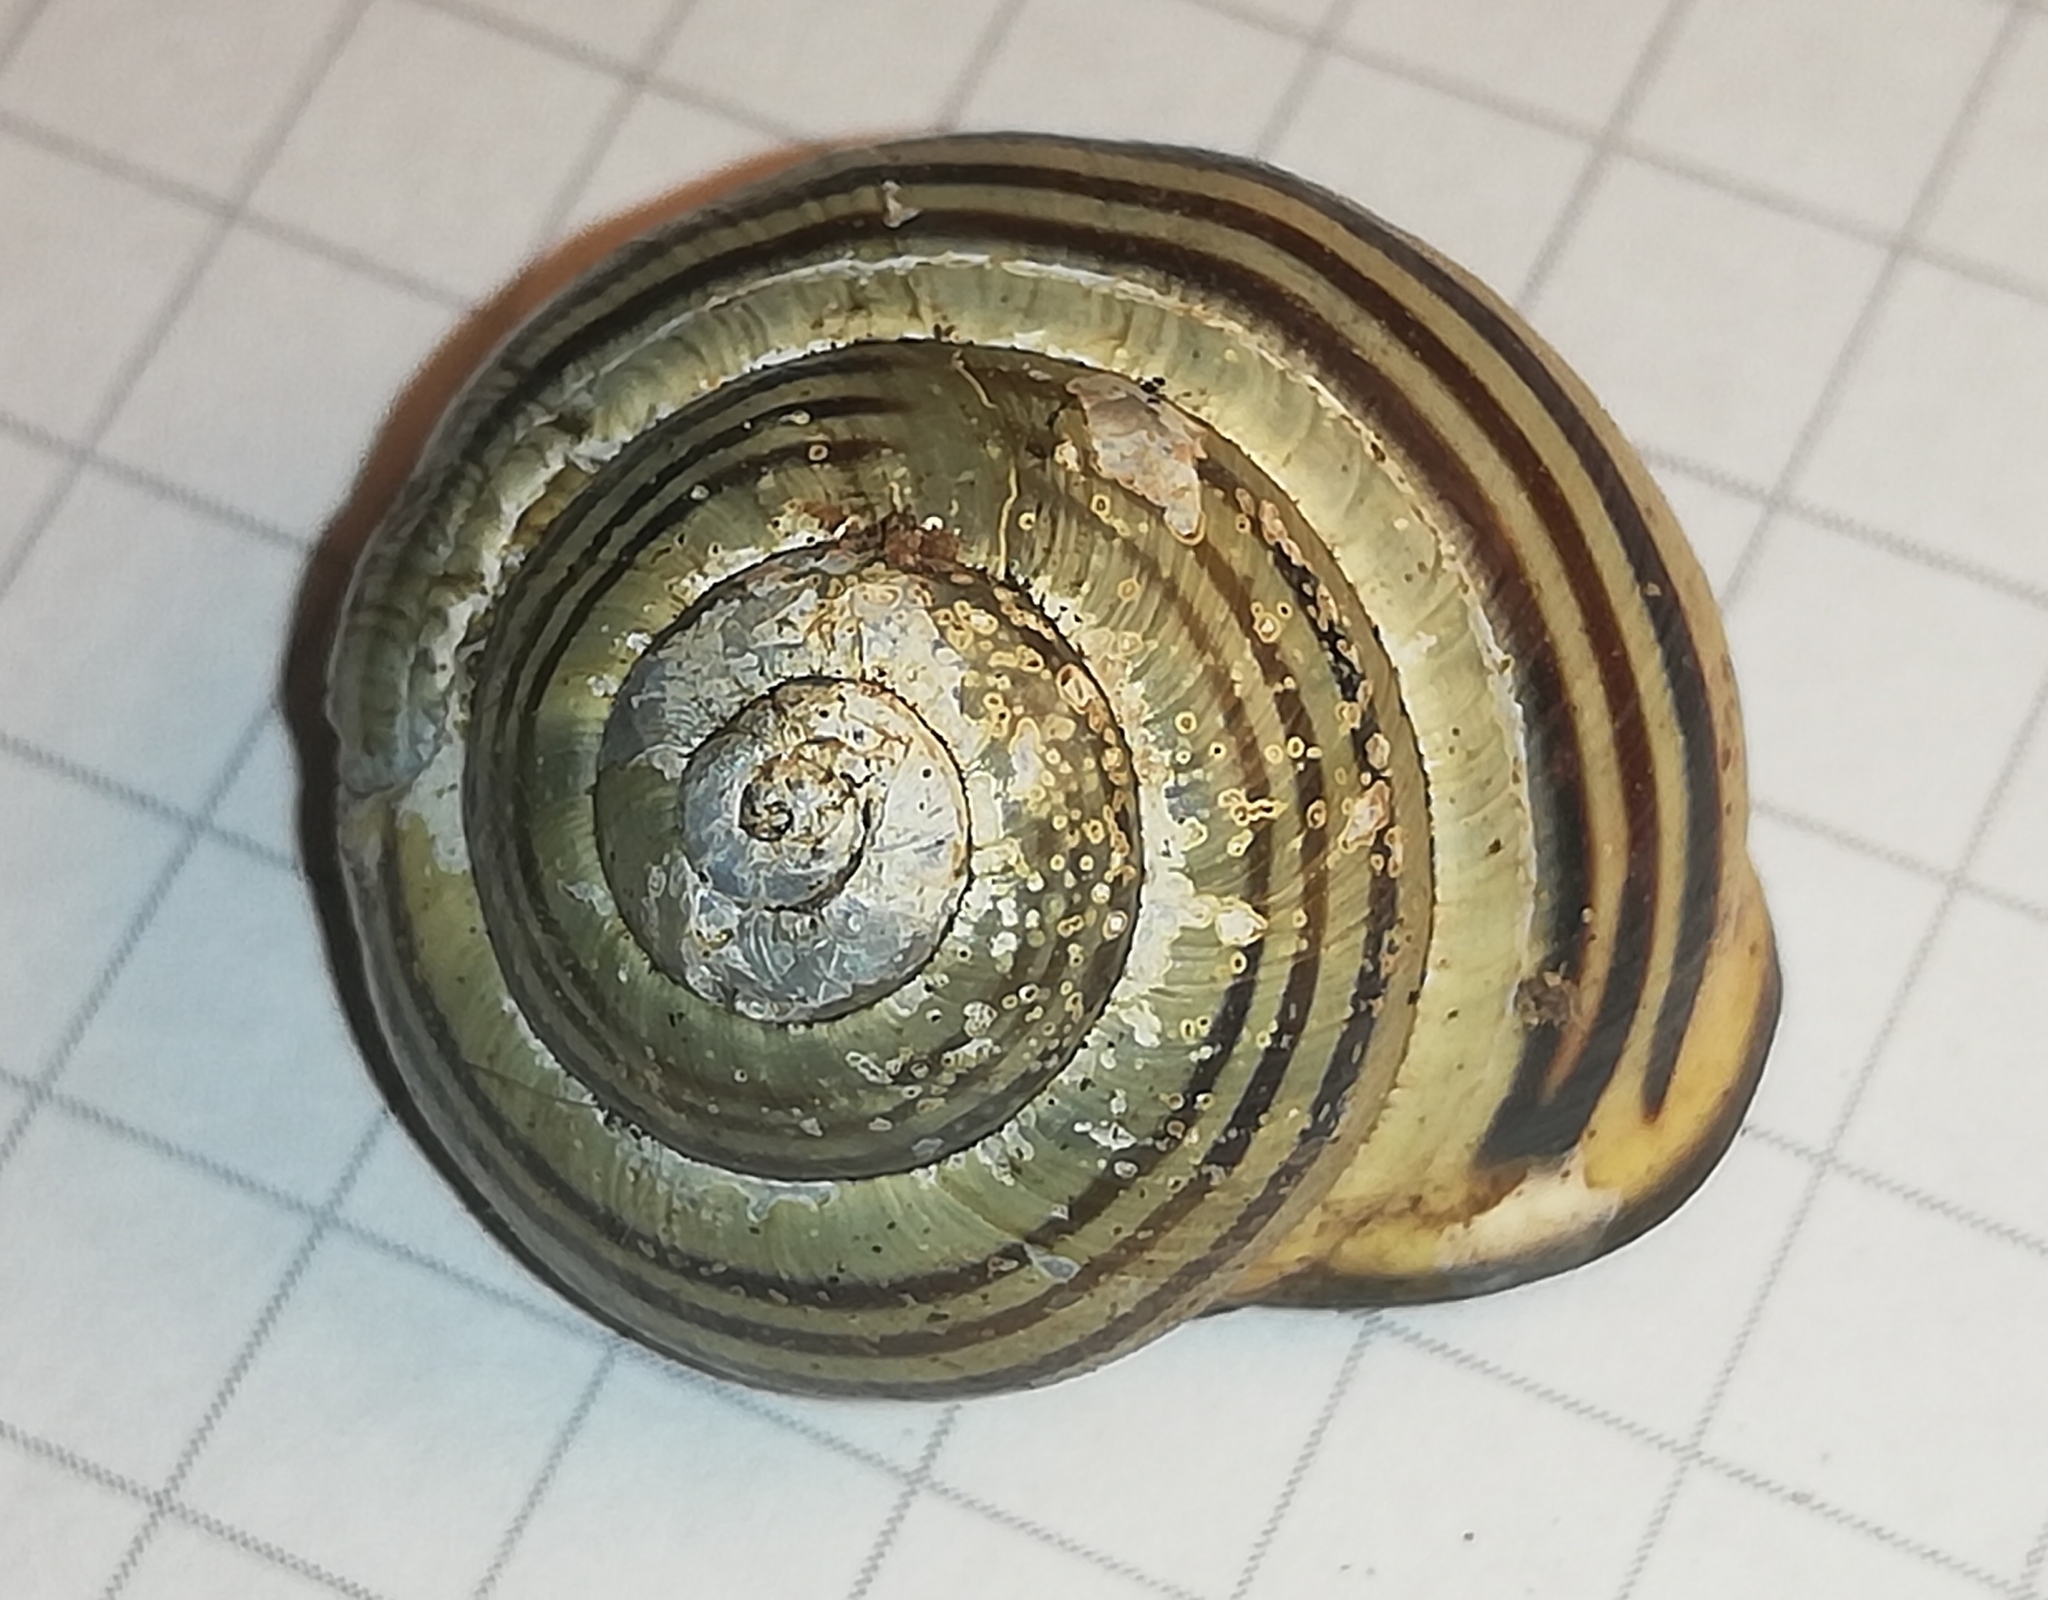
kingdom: Animalia
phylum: Mollusca
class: Gastropoda
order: Stylommatophora
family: Helicidae
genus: Cepaea
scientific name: Cepaea nemoralis
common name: Grovesnail
